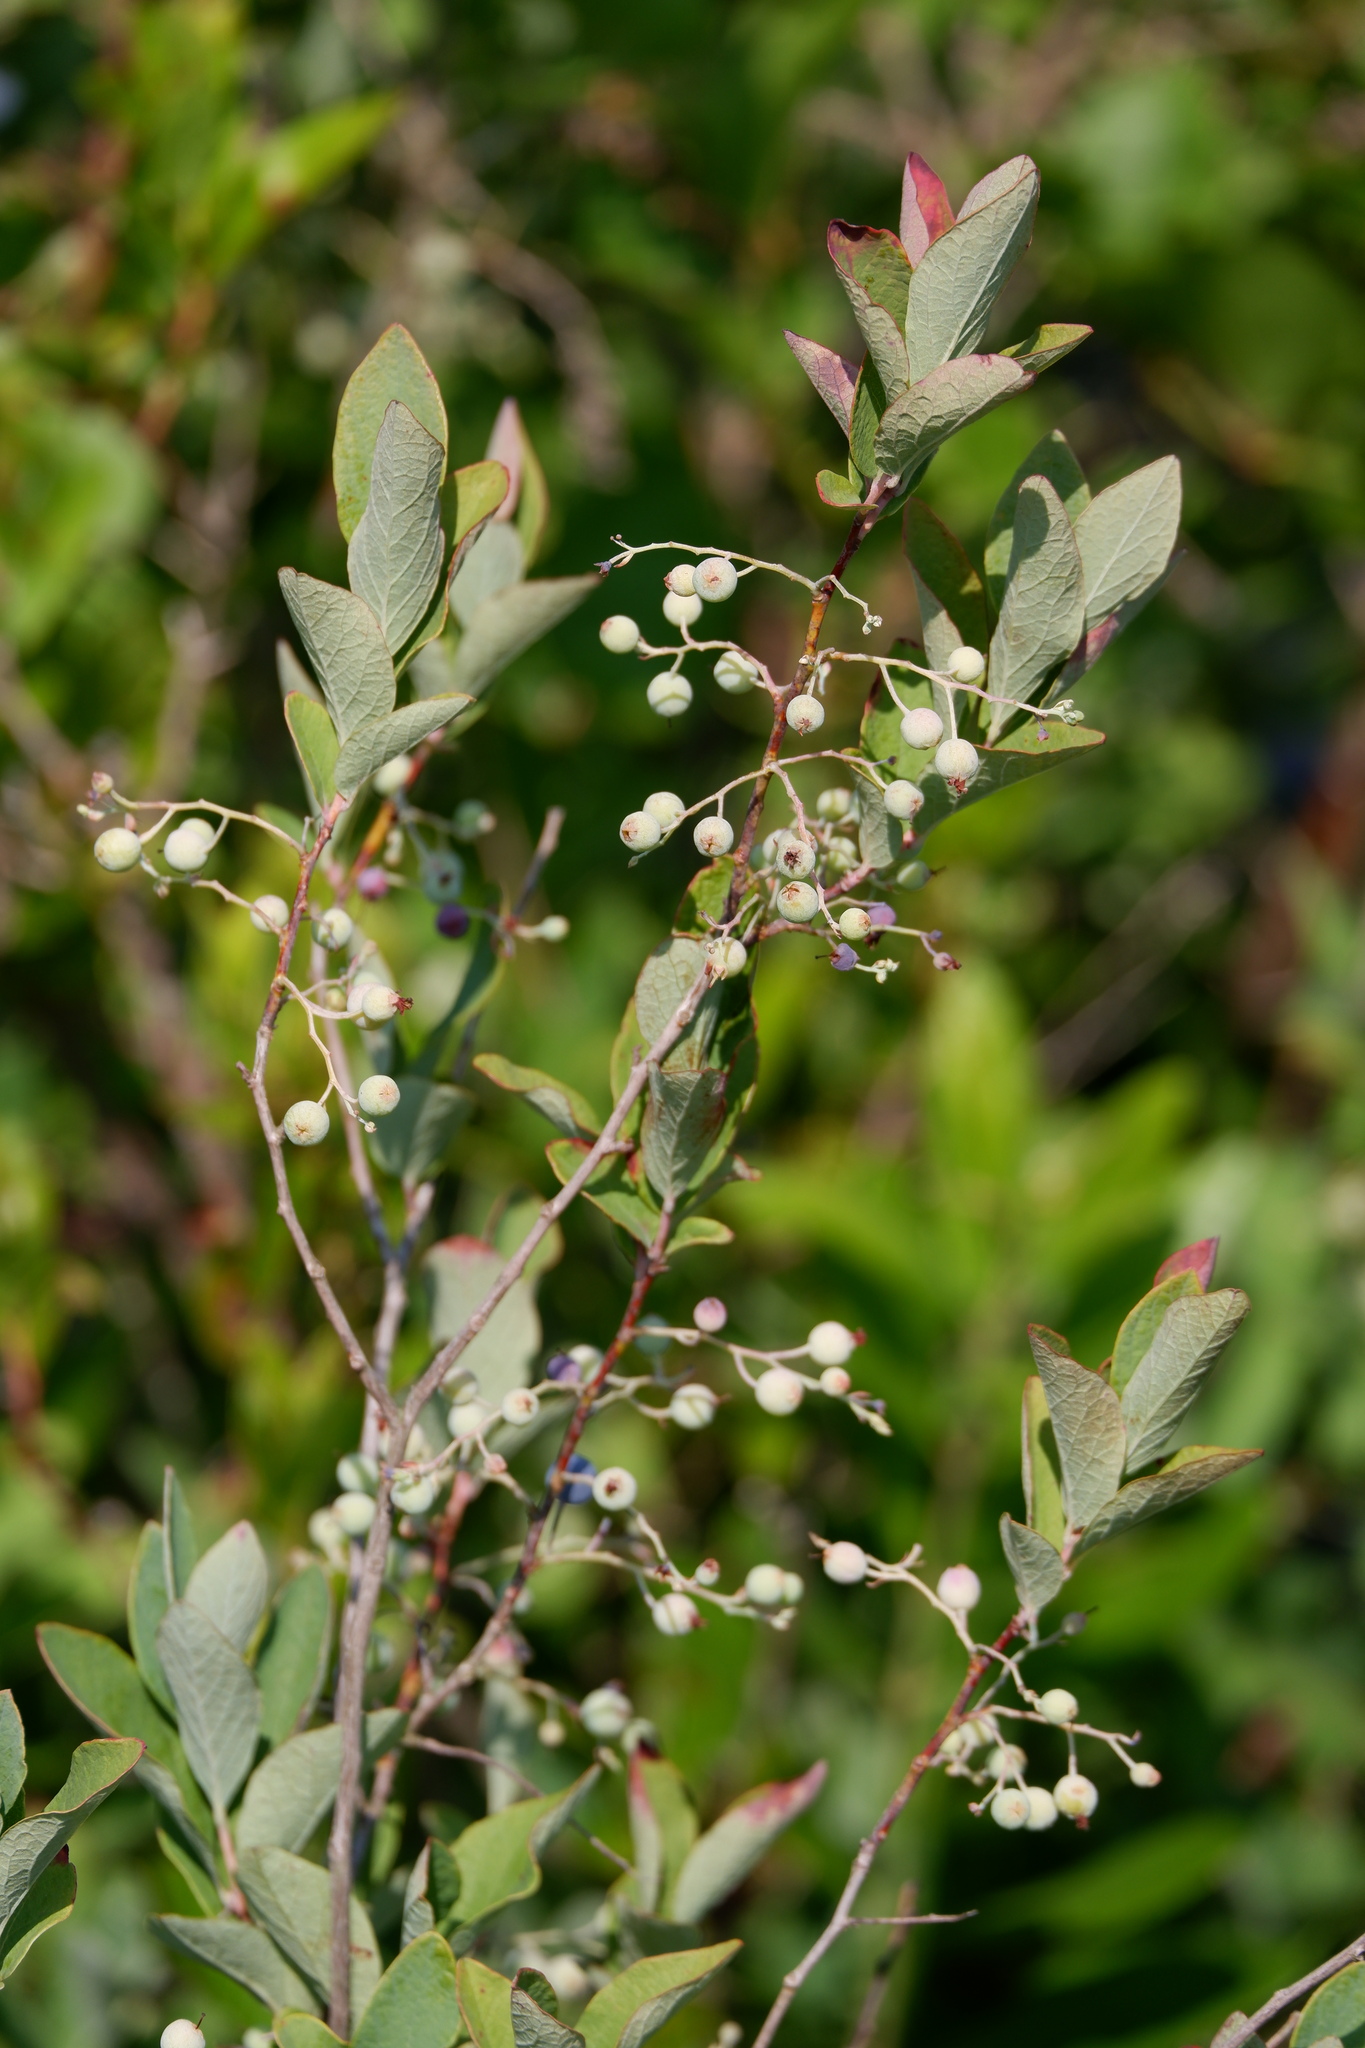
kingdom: Plantae
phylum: Tracheophyta
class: Magnoliopsida
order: Ericales
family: Ericaceae
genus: Gaylussacia
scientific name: Gaylussacia frondosa
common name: Dangleberry
